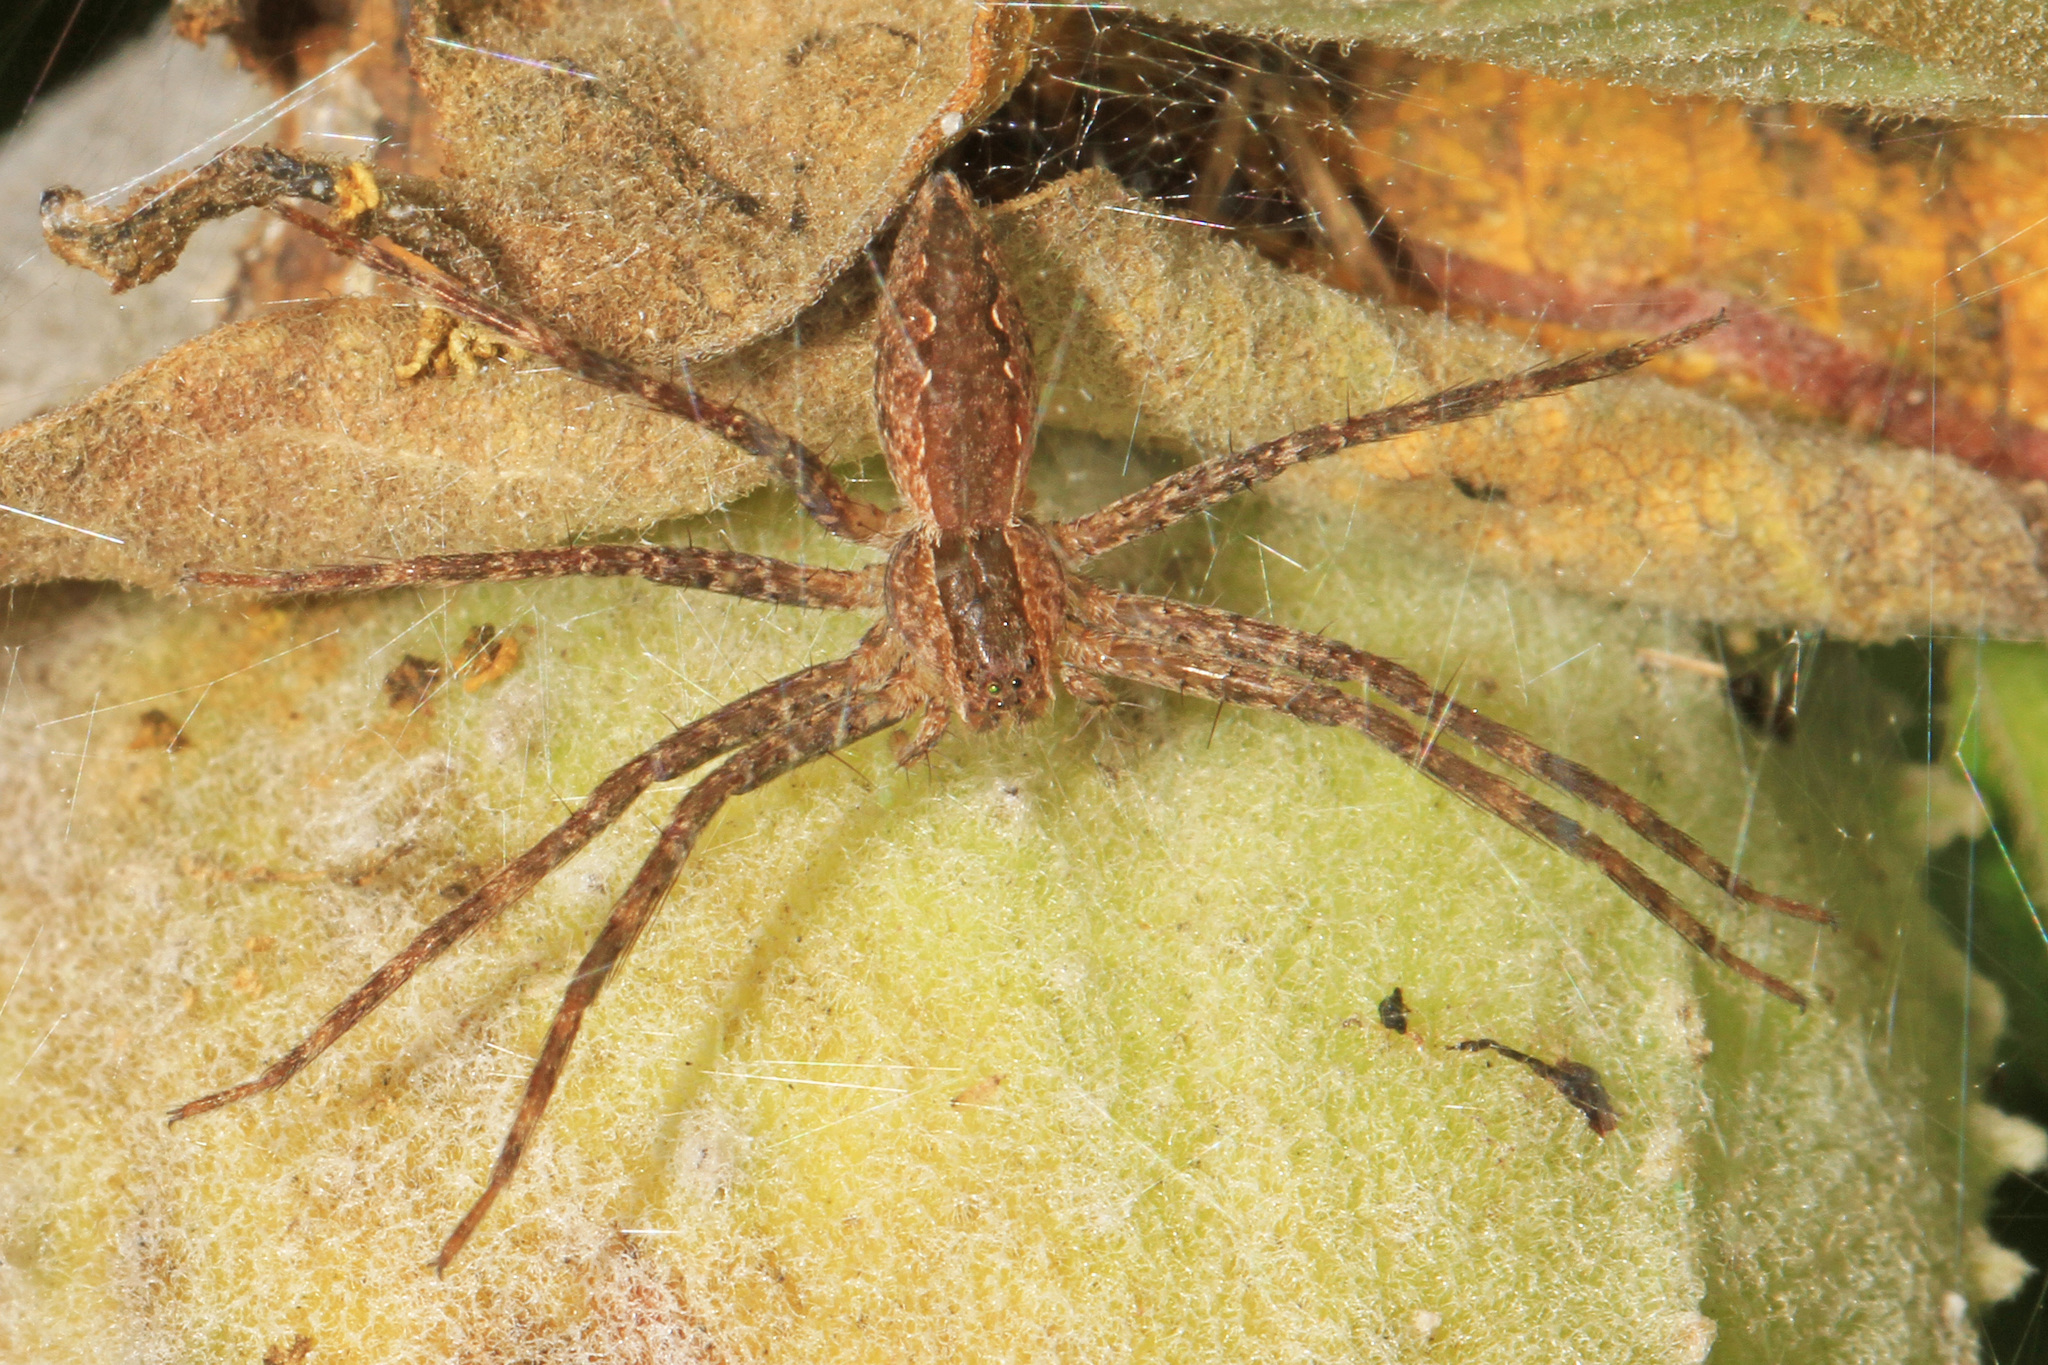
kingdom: Animalia
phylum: Arthropoda
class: Arachnida
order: Araneae
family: Pisauridae
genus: Pisaurina
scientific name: Pisaurina mira
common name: American nursery web spider
